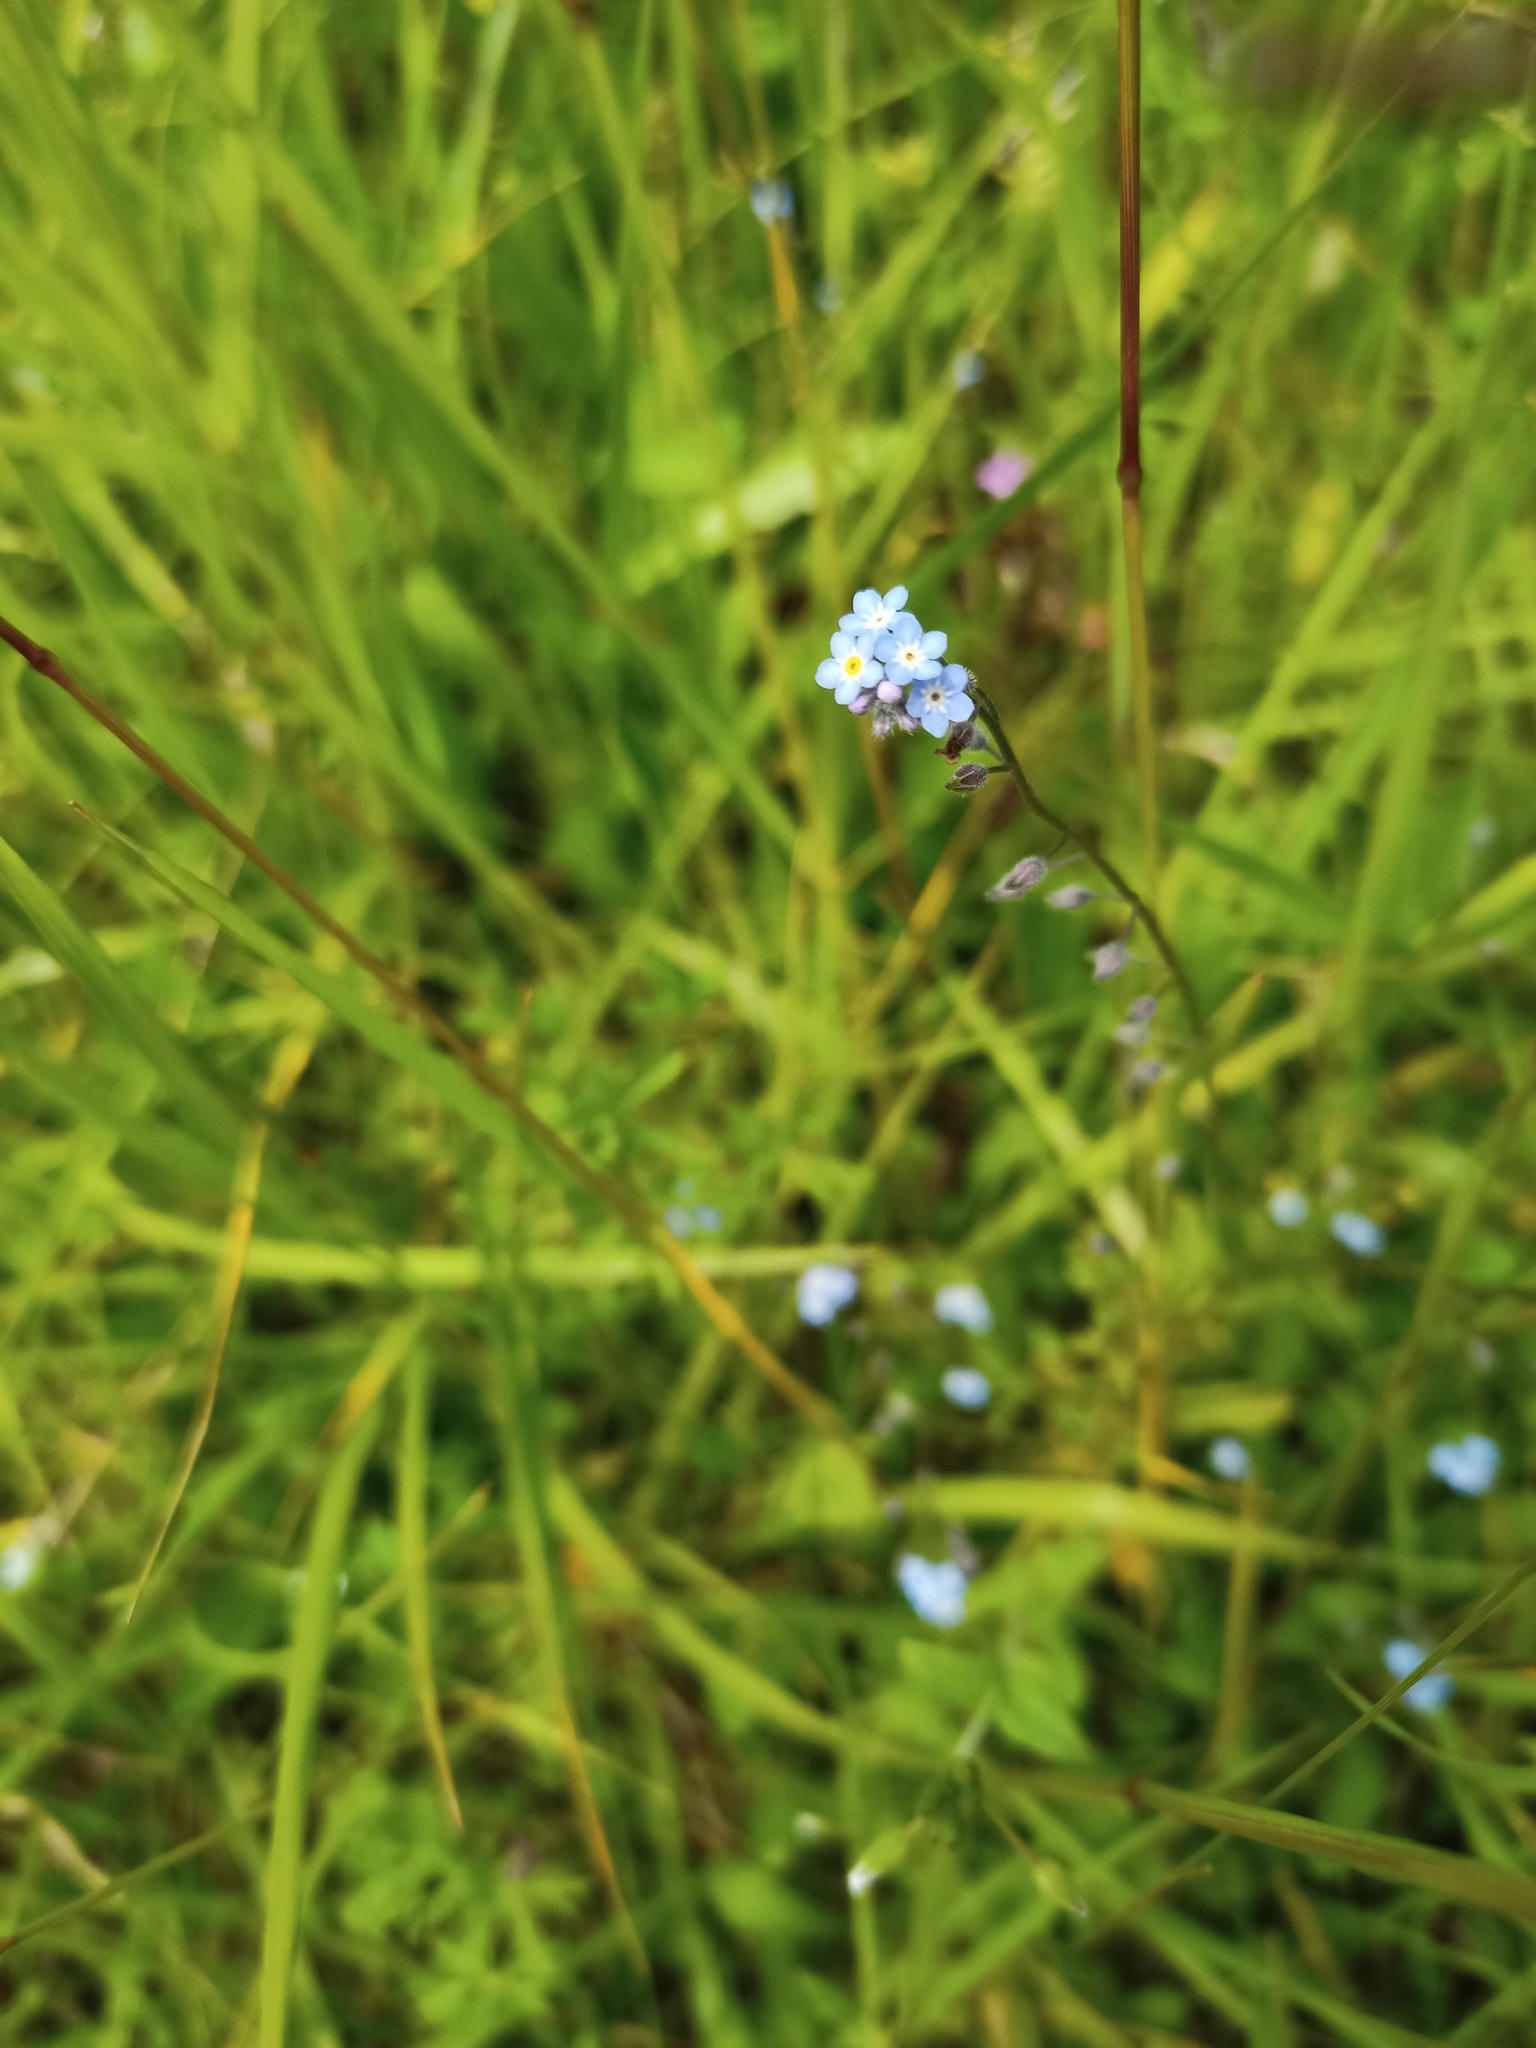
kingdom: Plantae
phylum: Tracheophyta
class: Magnoliopsida
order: Boraginales
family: Boraginaceae
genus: Myosotis
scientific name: Myosotis arvensis
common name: Field forget-me-not
